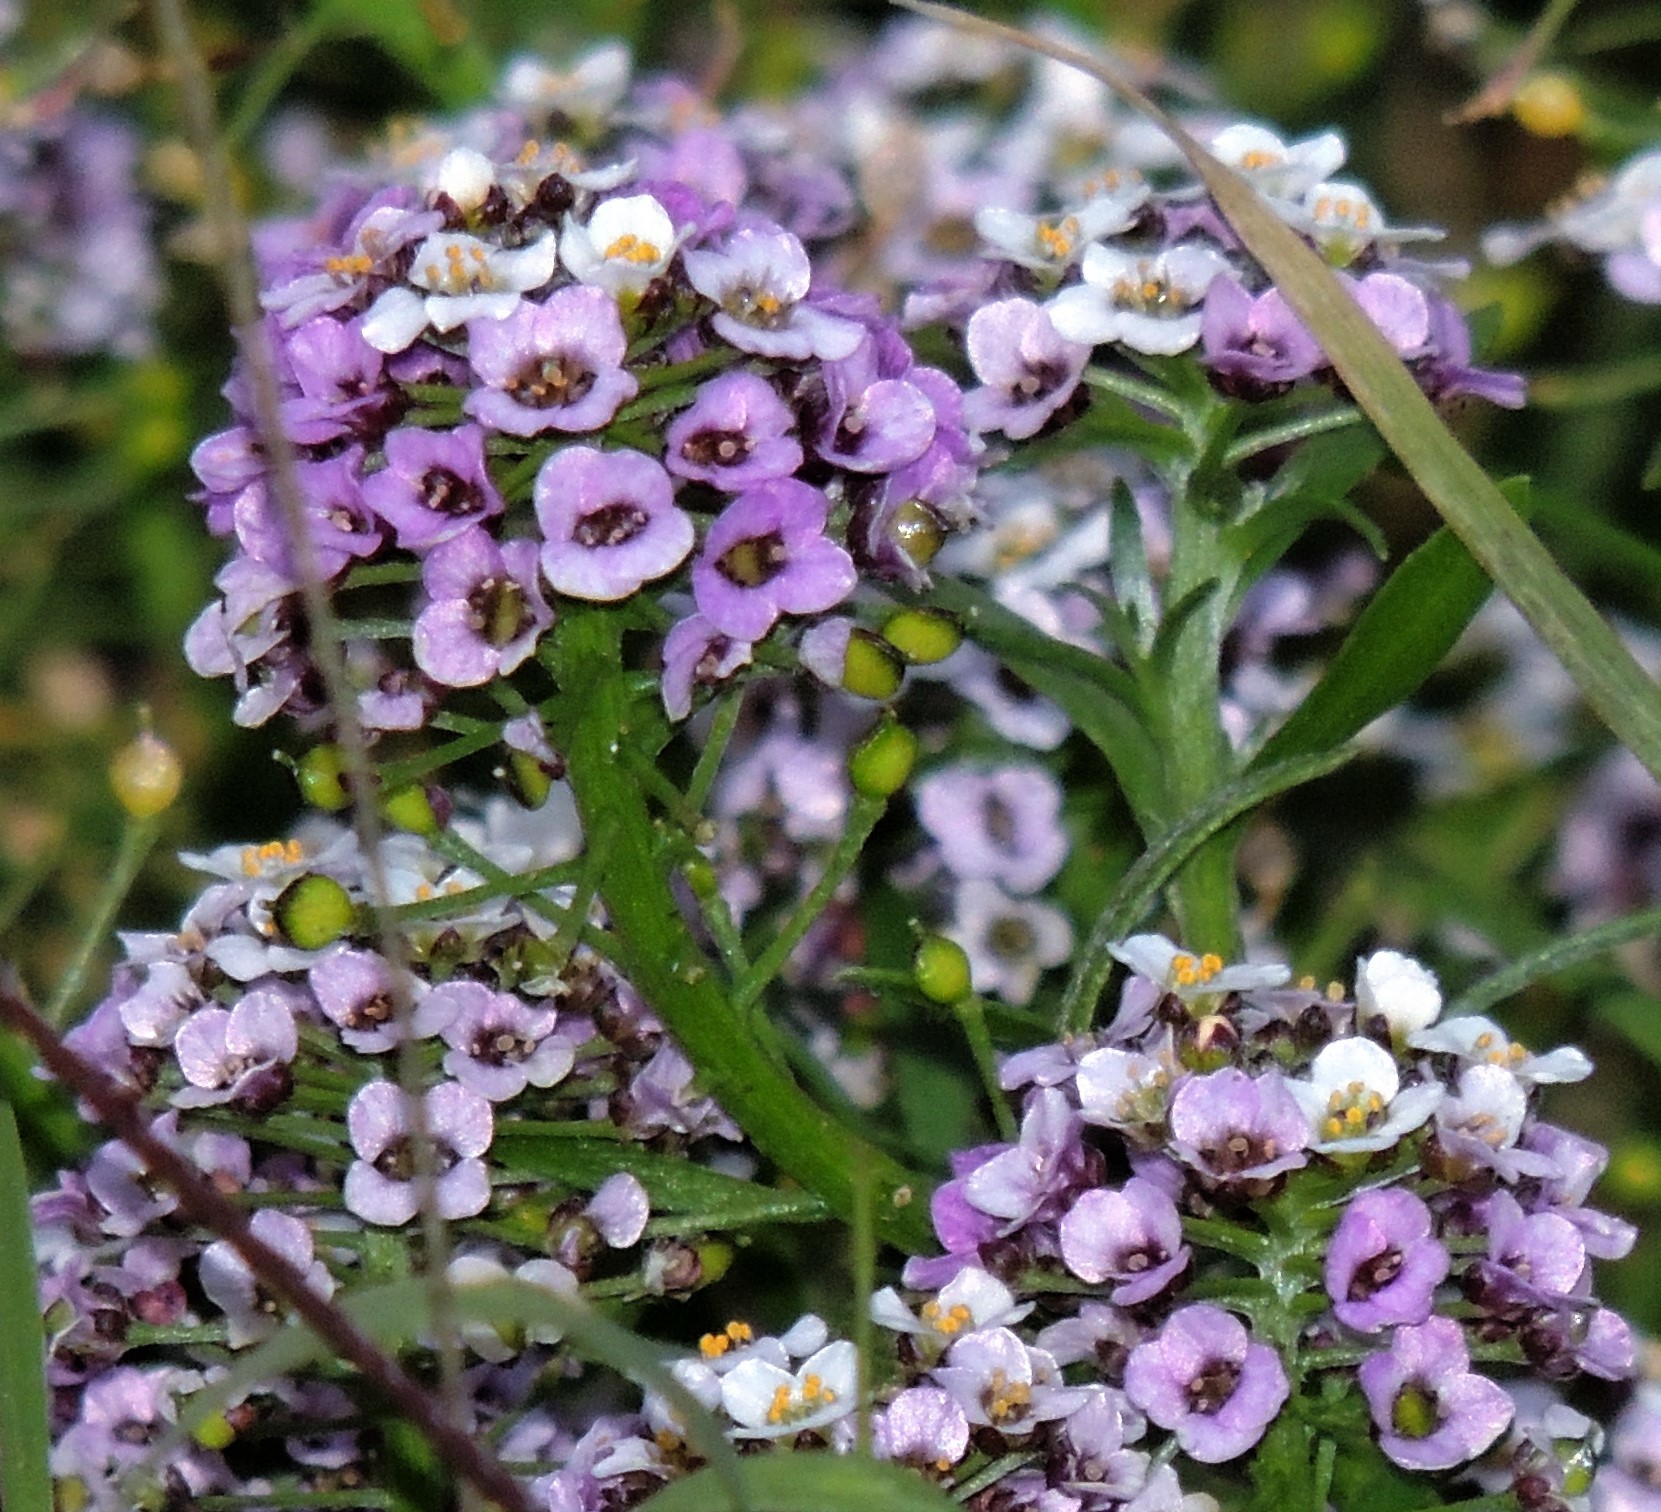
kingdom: Plantae
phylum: Tracheophyta
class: Magnoliopsida
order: Brassicales
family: Brassicaceae
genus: Lobularia
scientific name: Lobularia maritima
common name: Sweet alison
